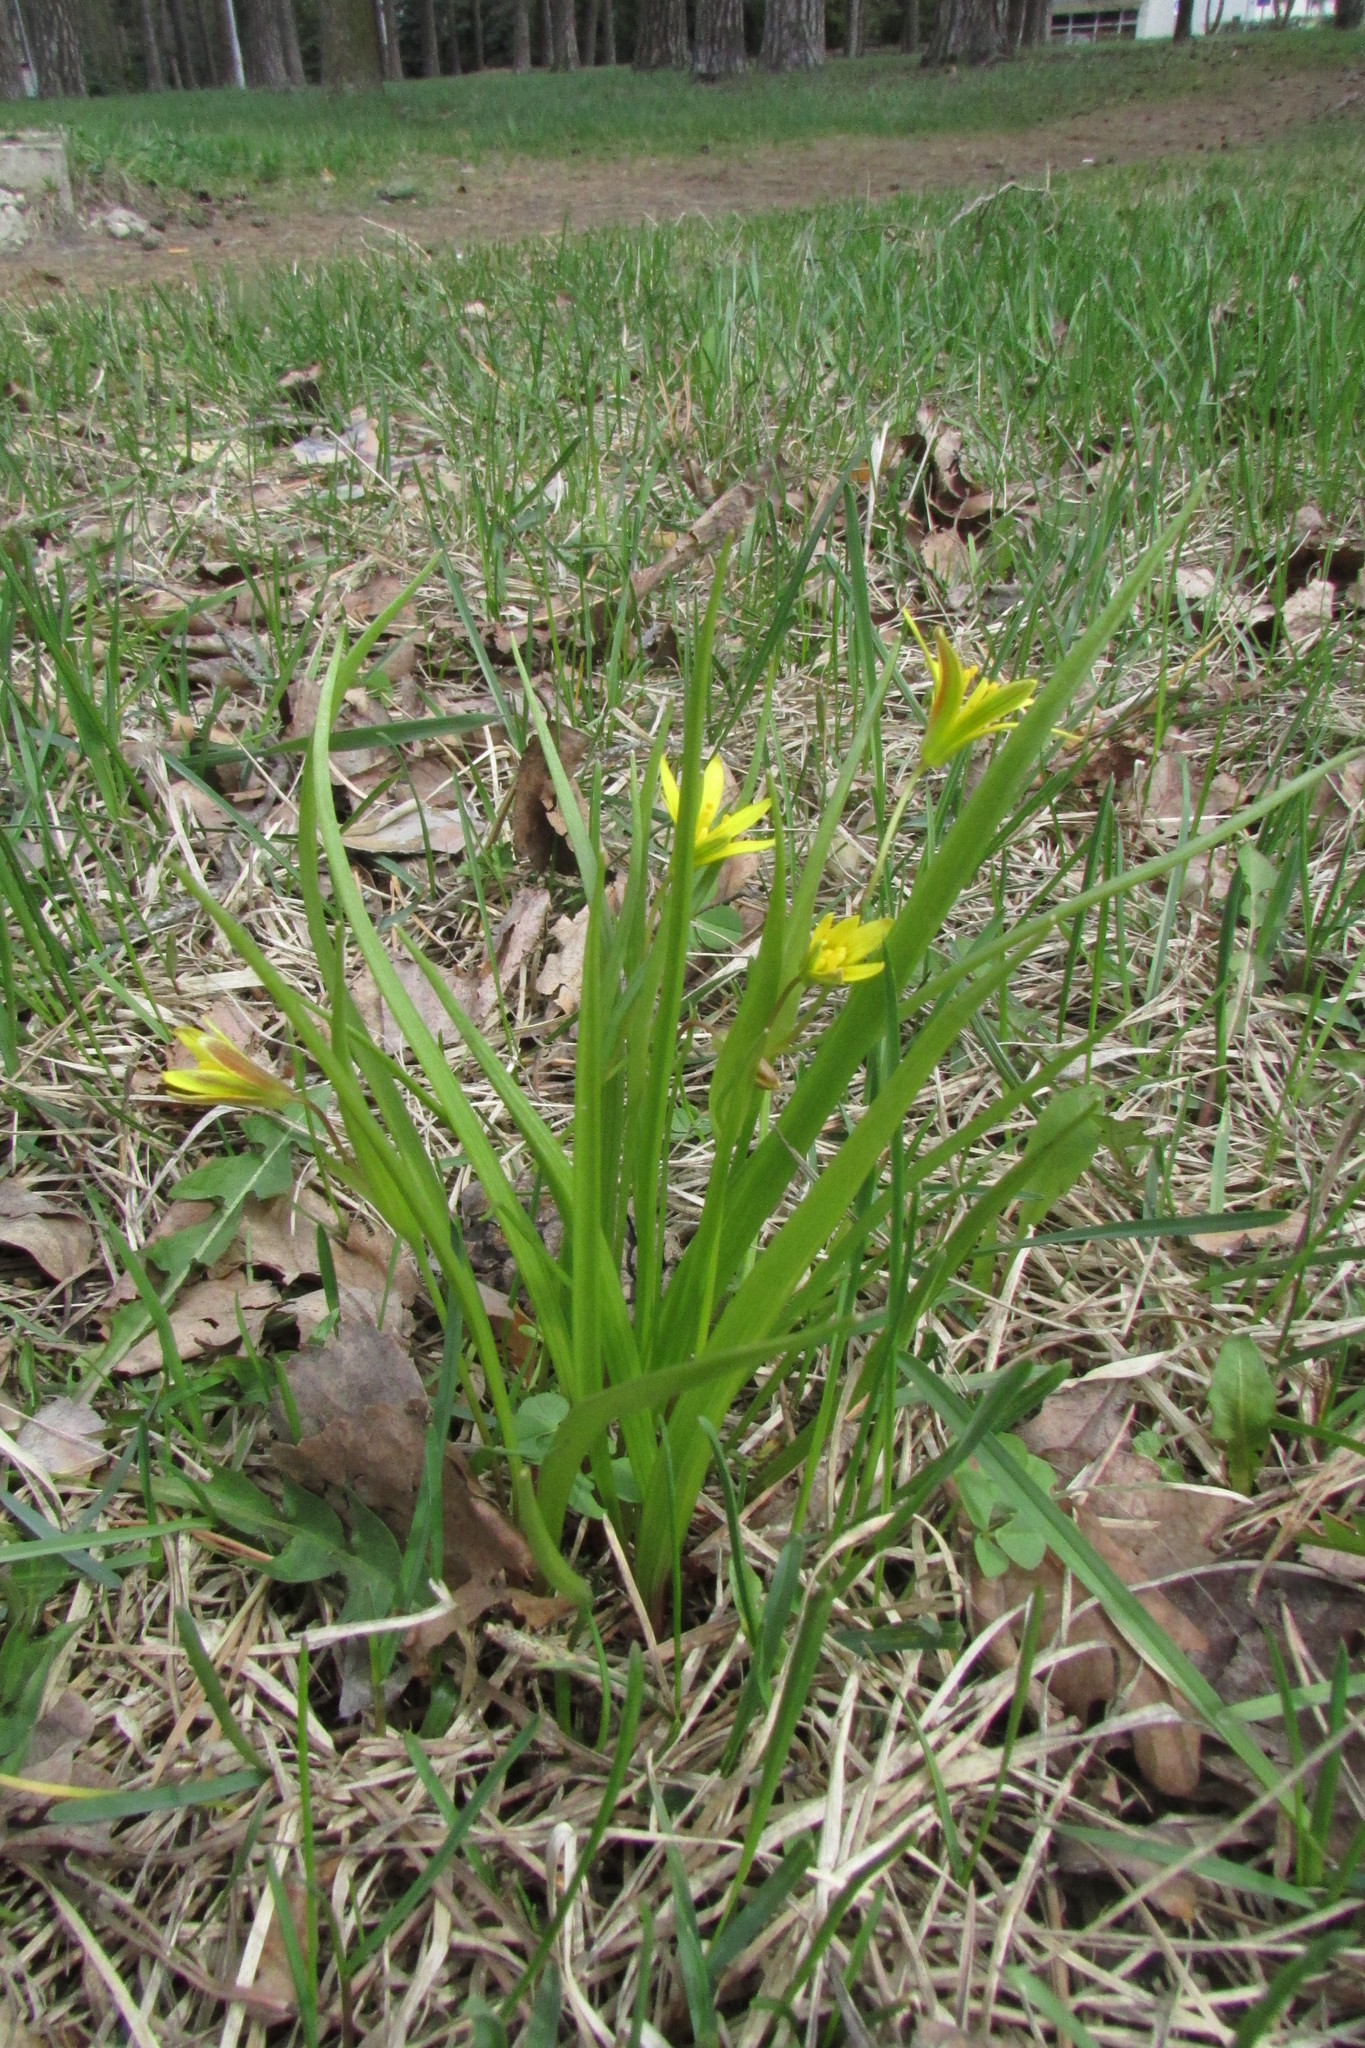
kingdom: Plantae
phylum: Tracheophyta
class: Liliopsida
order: Liliales
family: Liliaceae
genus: Gagea
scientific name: Gagea lutea
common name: Yellow star-of-bethlehem
